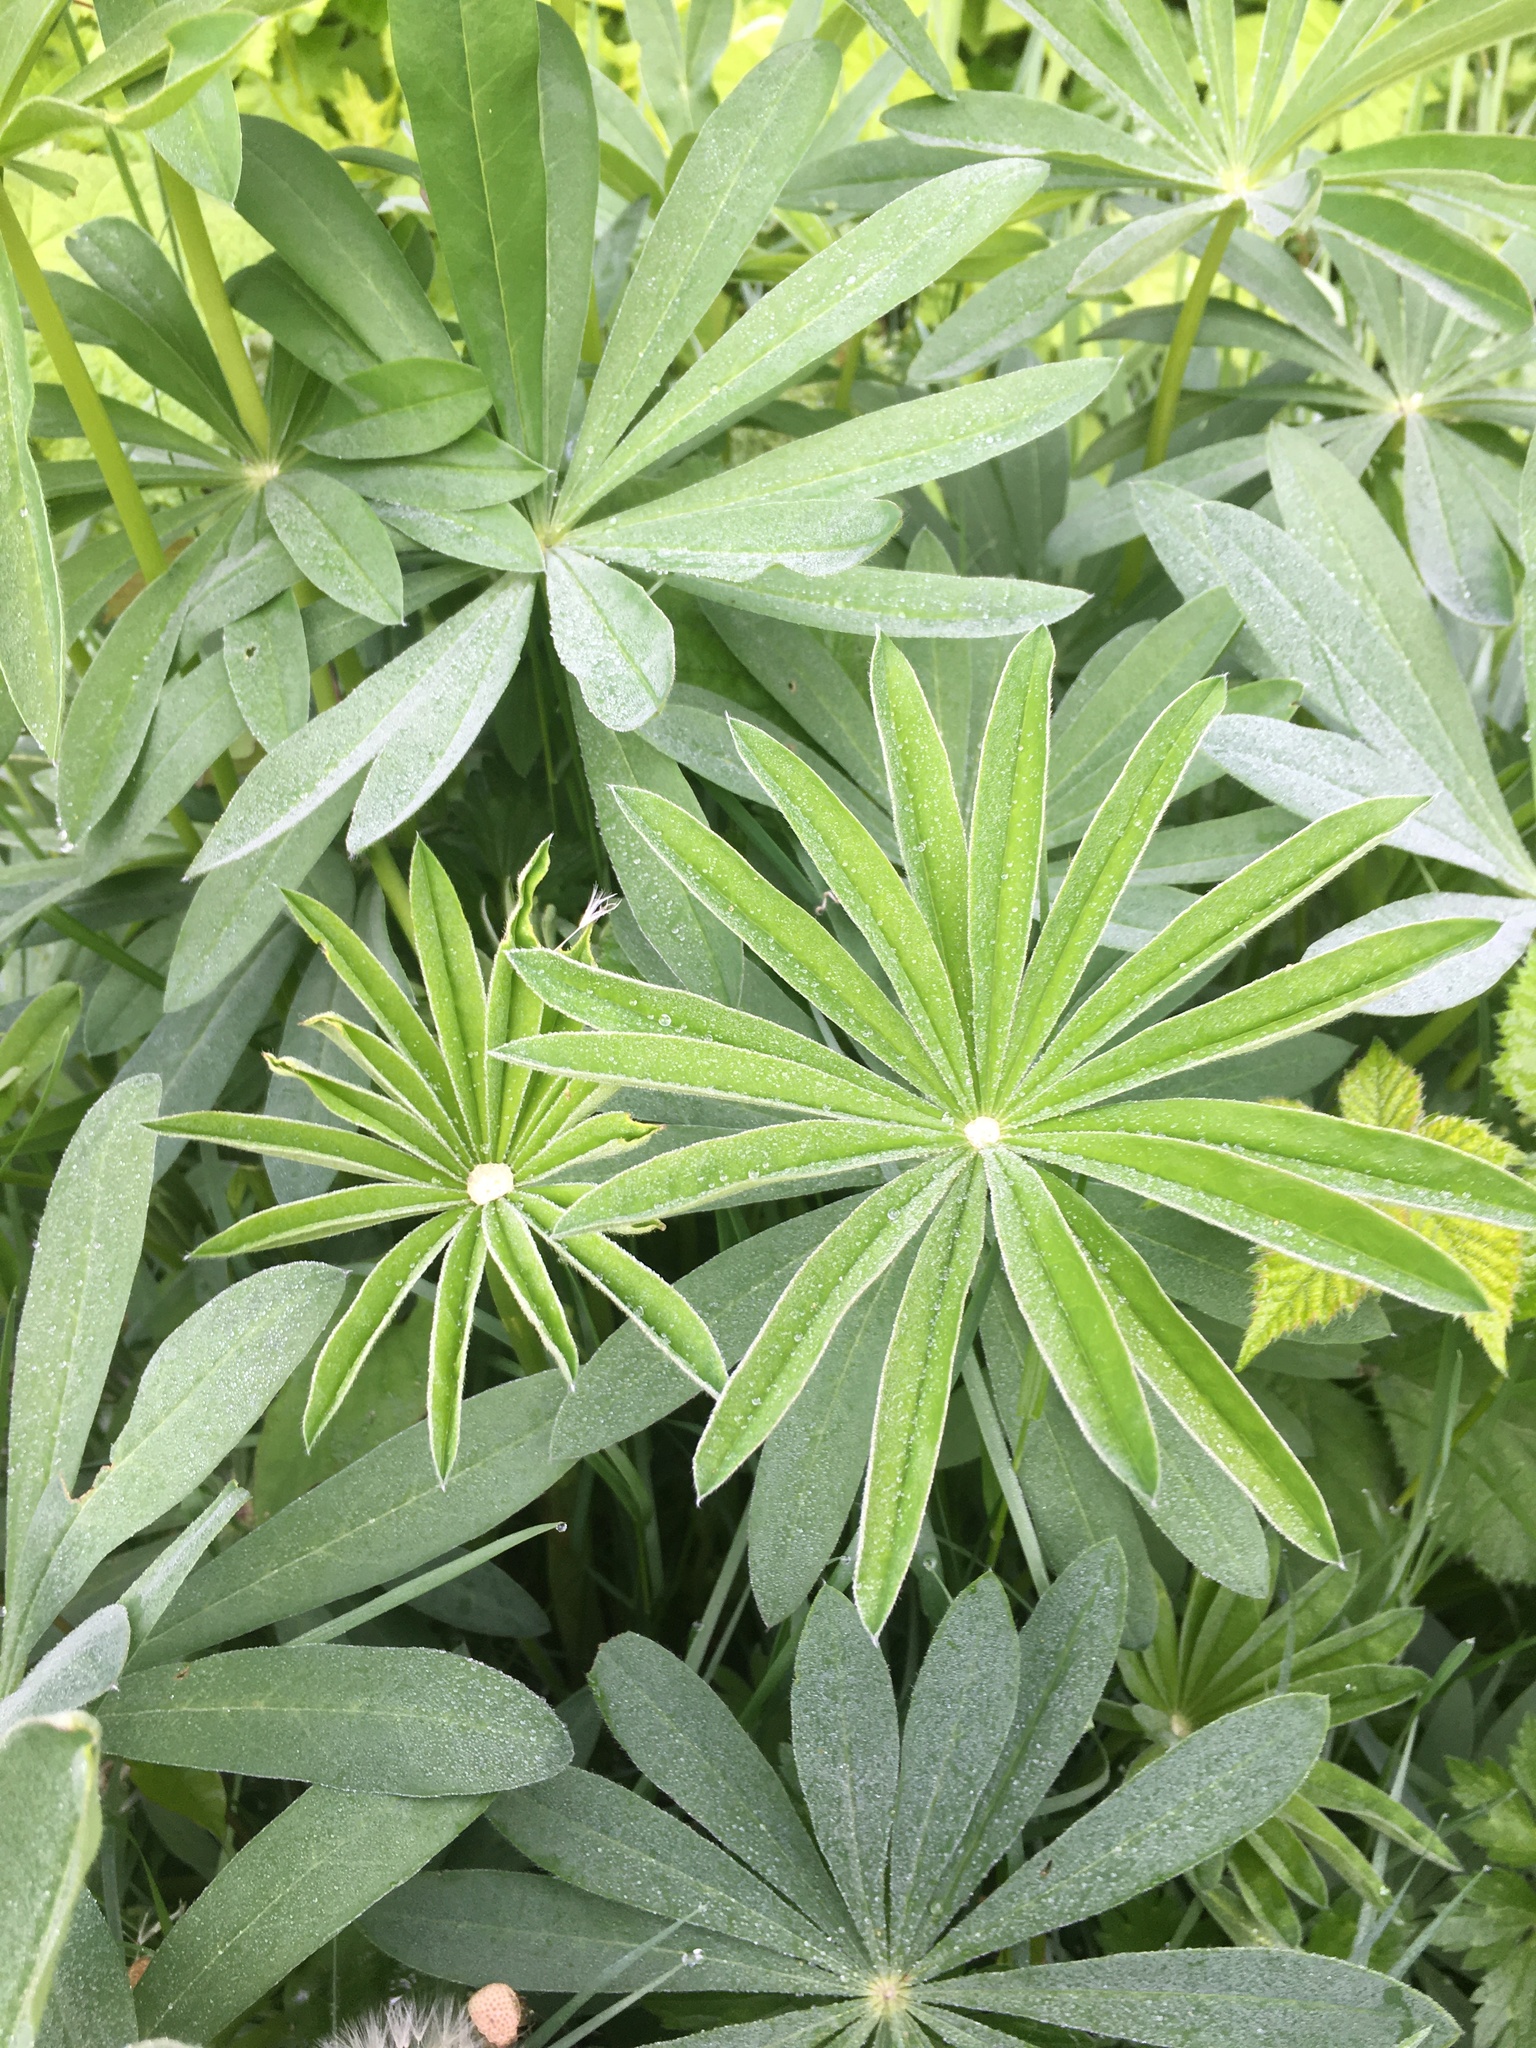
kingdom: Plantae
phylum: Tracheophyta
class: Magnoliopsida
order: Fabales
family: Fabaceae
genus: Lupinus
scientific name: Lupinus polyphyllus
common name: Garden lupin
